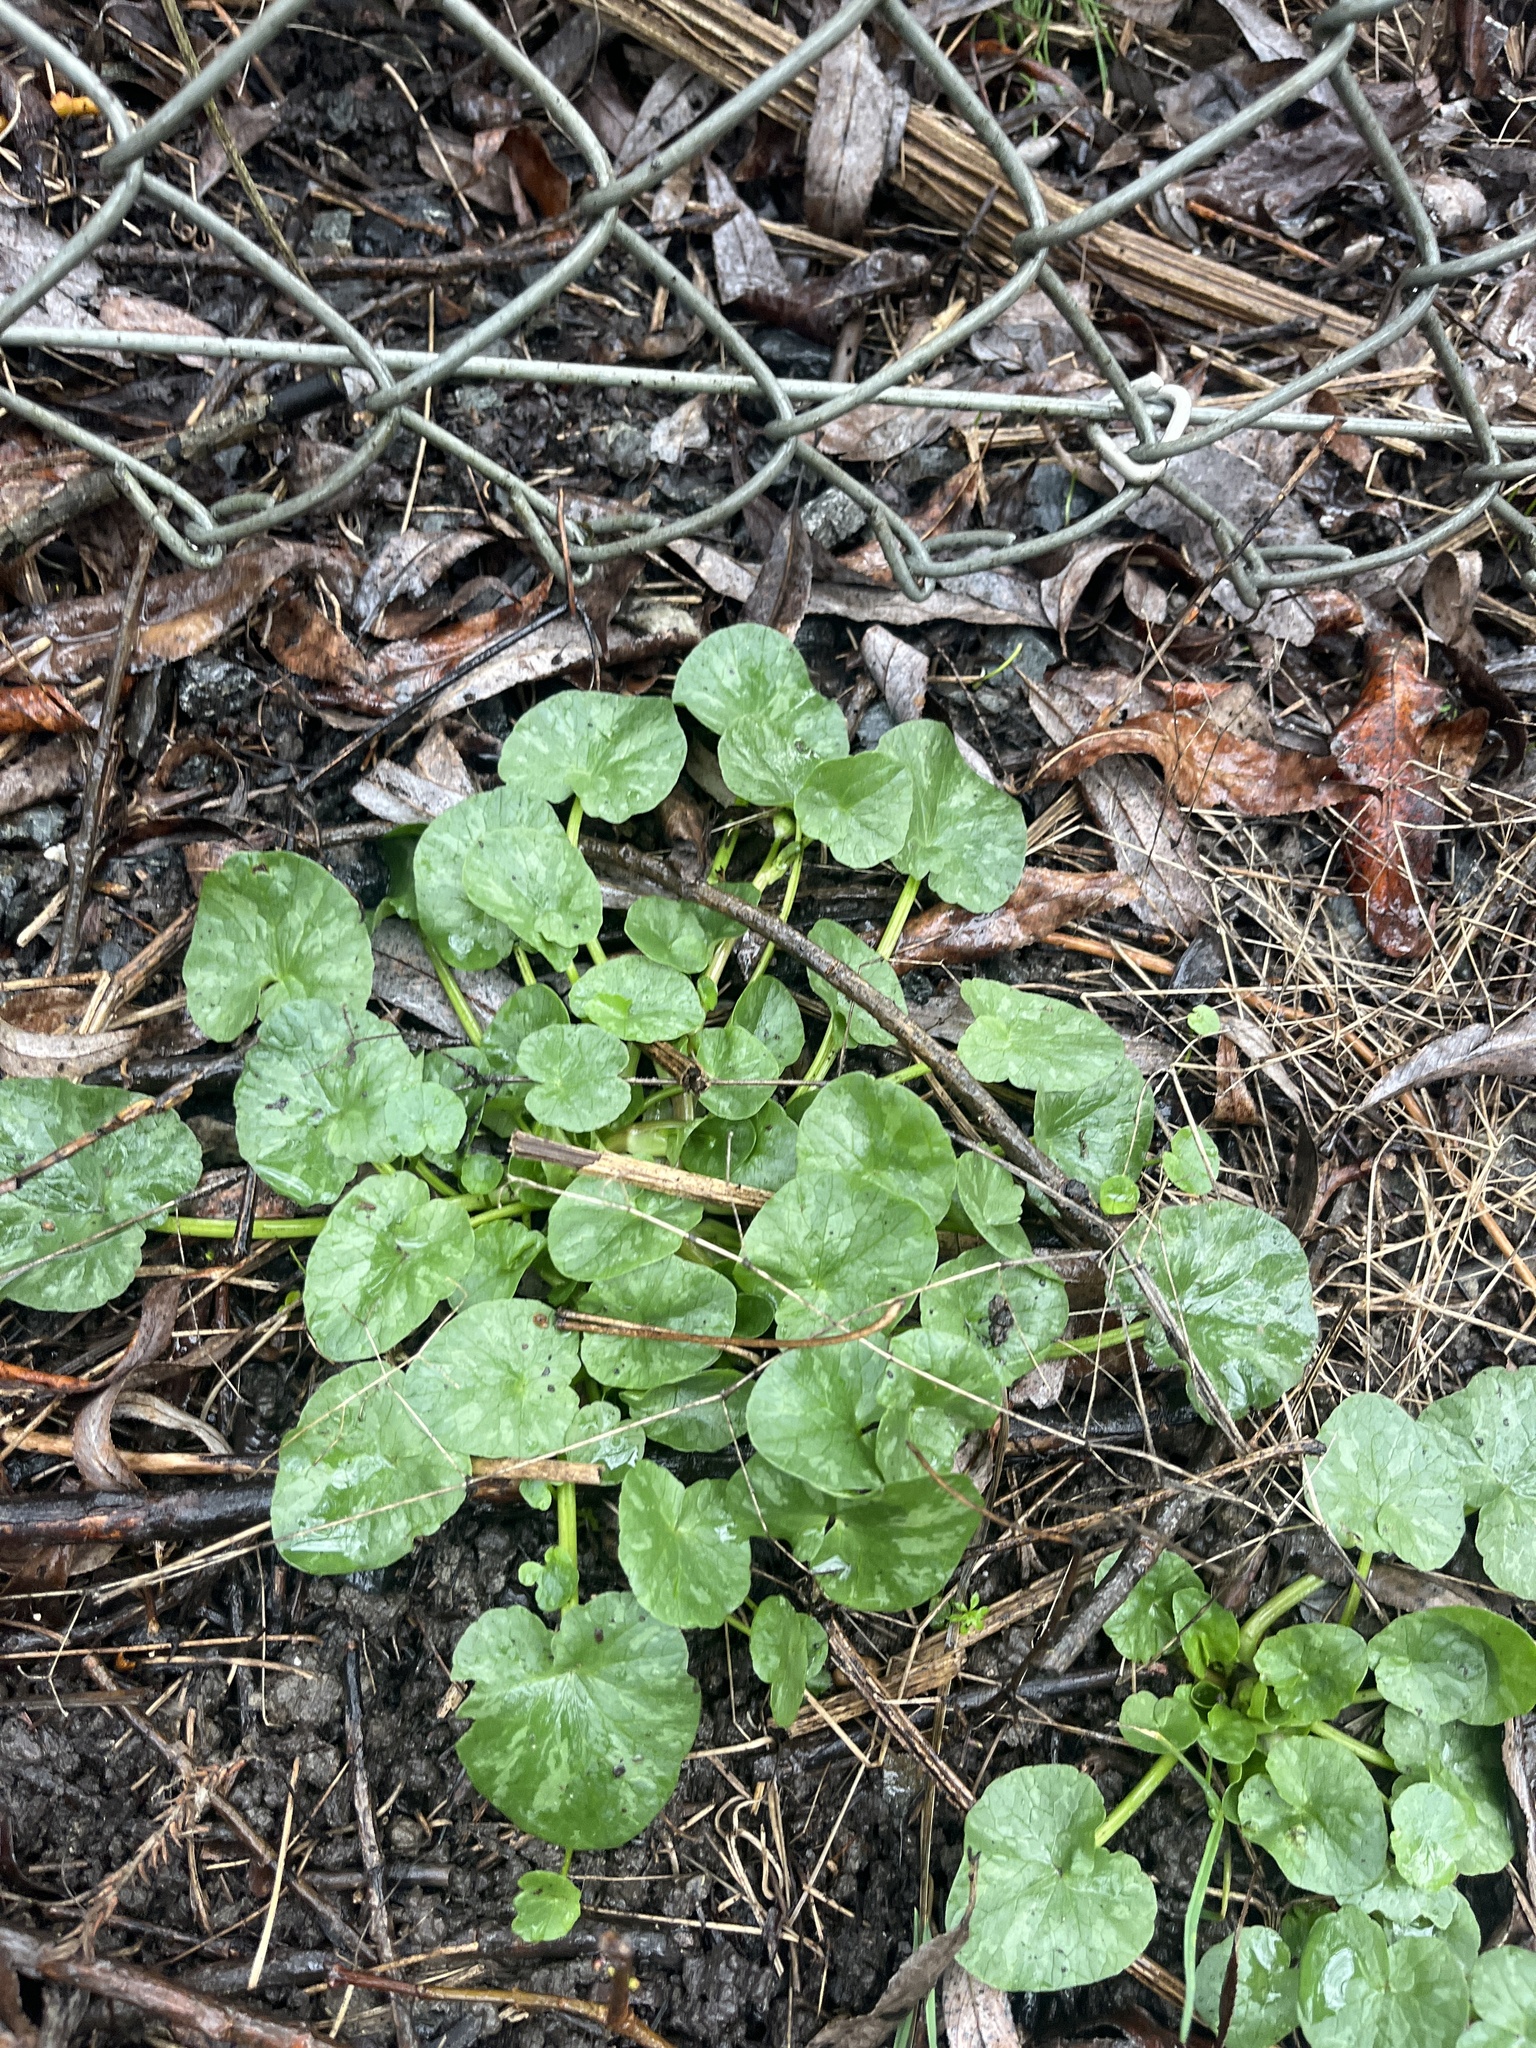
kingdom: Plantae
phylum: Tracheophyta
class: Magnoliopsida
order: Ranunculales
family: Ranunculaceae
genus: Ficaria
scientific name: Ficaria verna
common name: Lesser celandine
